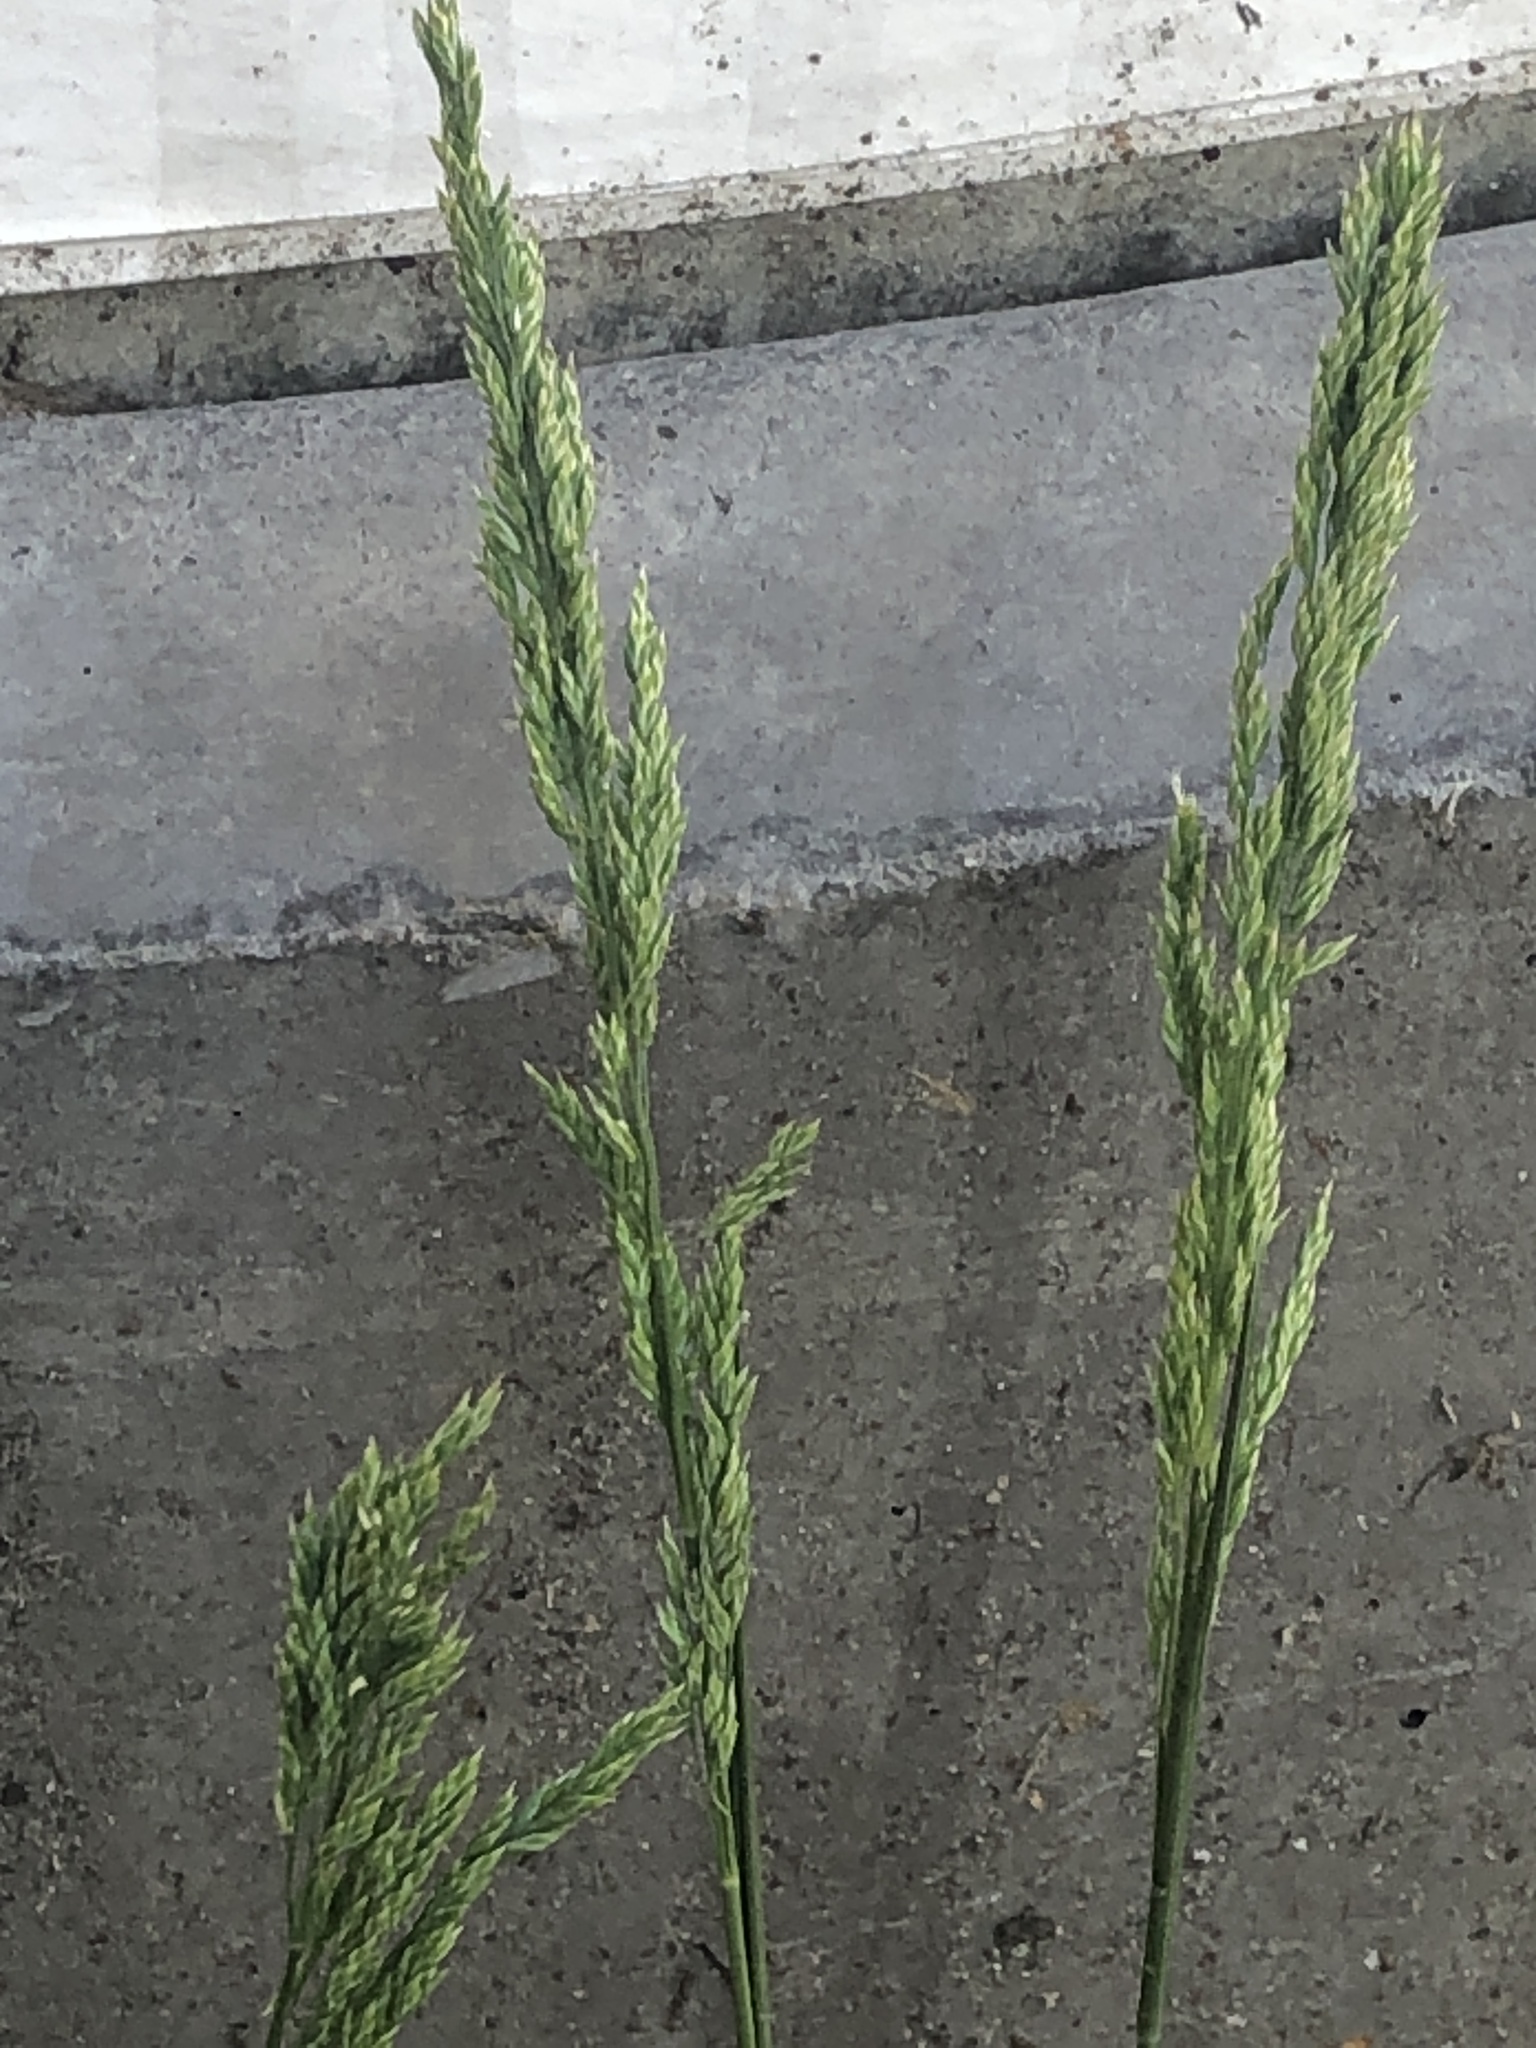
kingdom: Plantae
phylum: Tracheophyta
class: Liliopsida
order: Poales
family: Poaceae
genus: Poa
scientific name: Poa pratensis
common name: Kentucky bluegrass
